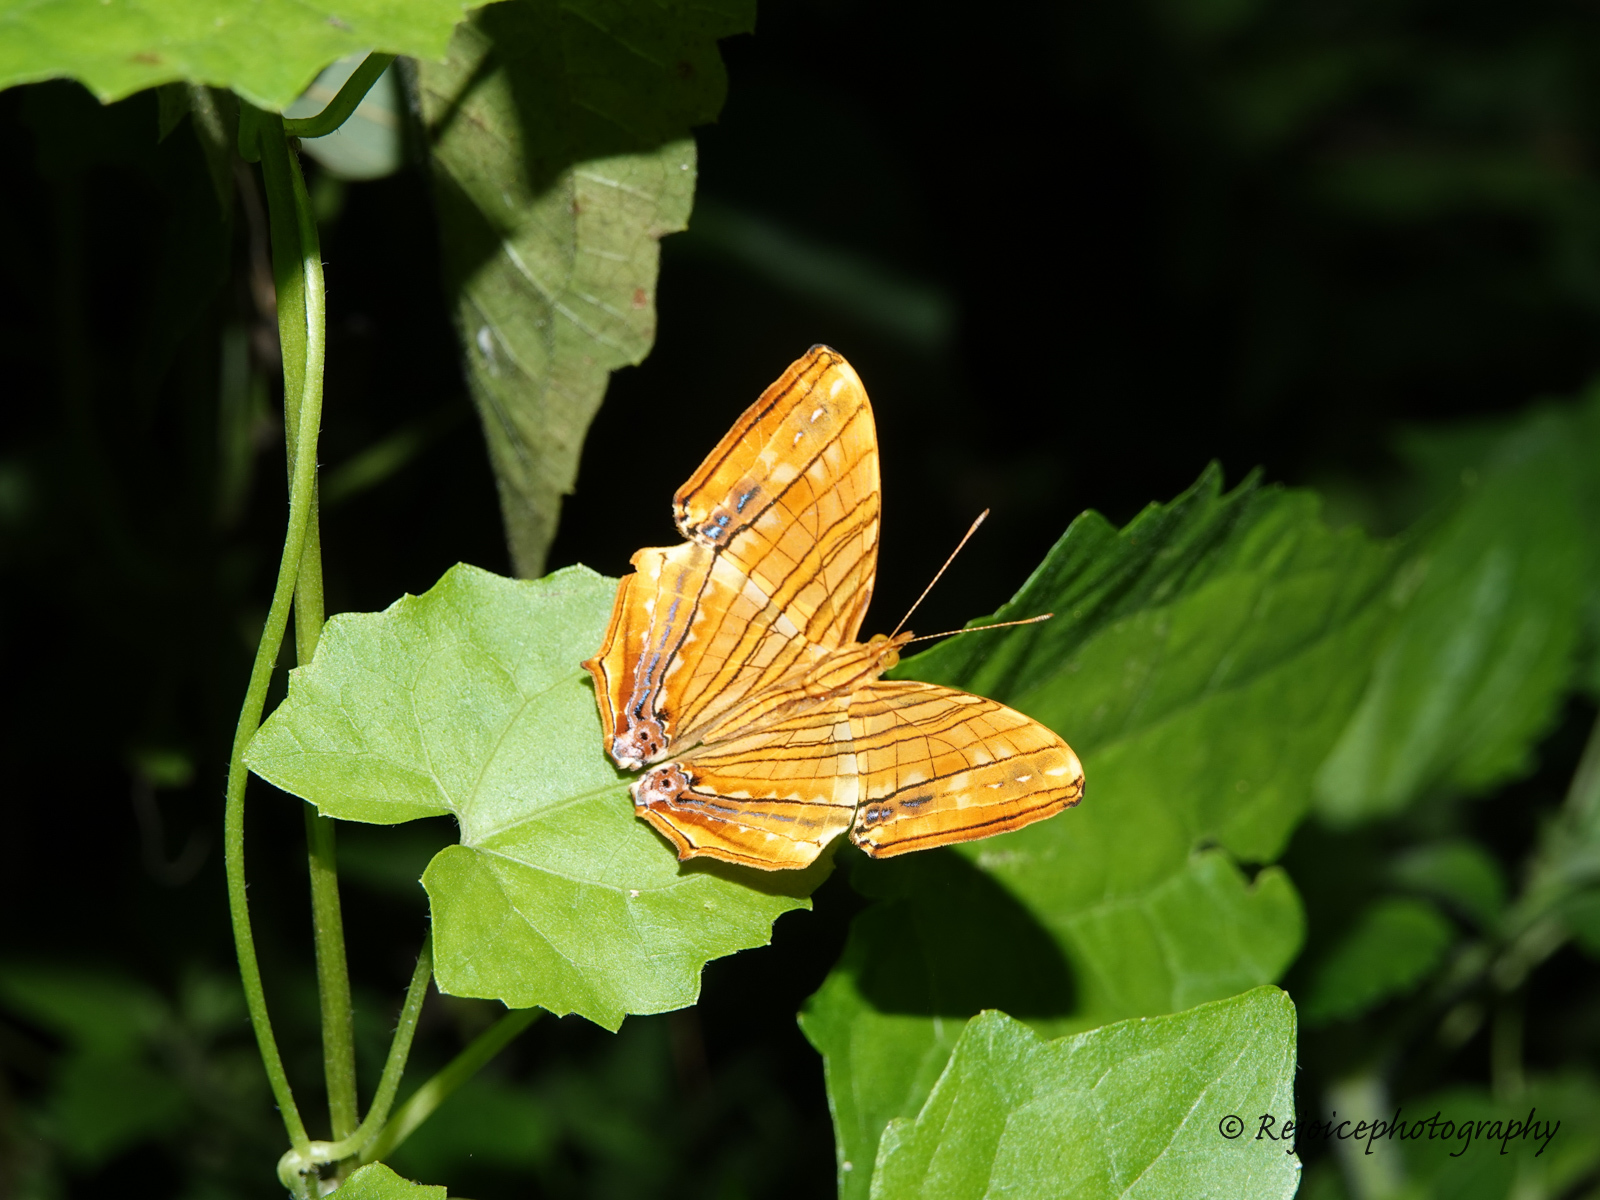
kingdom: Animalia
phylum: Arthropoda
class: Insecta
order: Lepidoptera
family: Nymphalidae
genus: Chersonesia
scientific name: Chersonesia risa
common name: Common maplet
